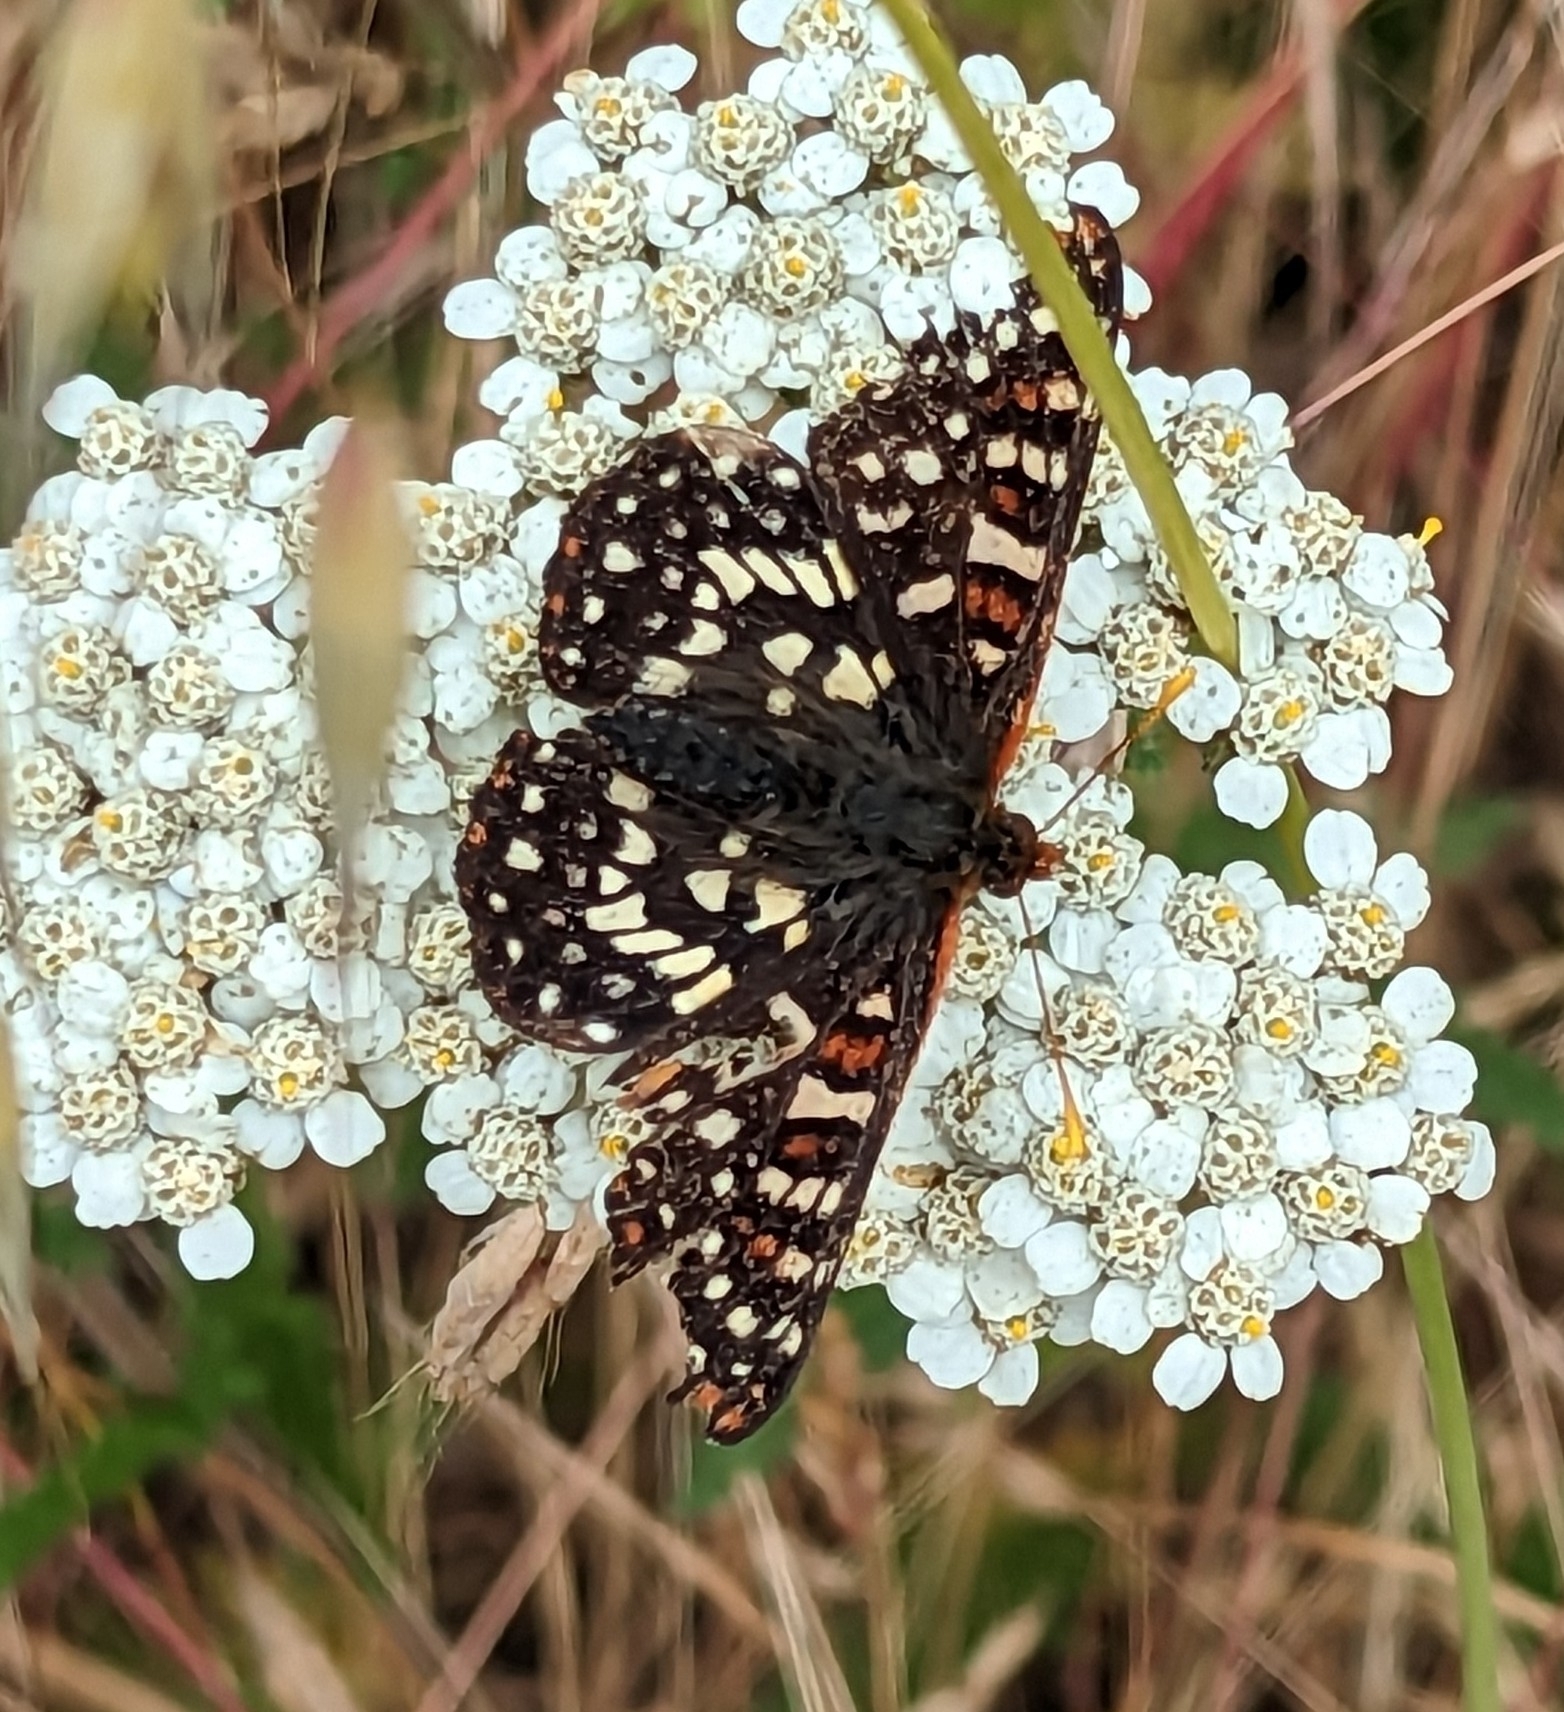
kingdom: Animalia
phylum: Arthropoda
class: Insecta
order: Lepidoptera
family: Nymphalidae
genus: Occidryas
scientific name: Occidryas chalcedona
